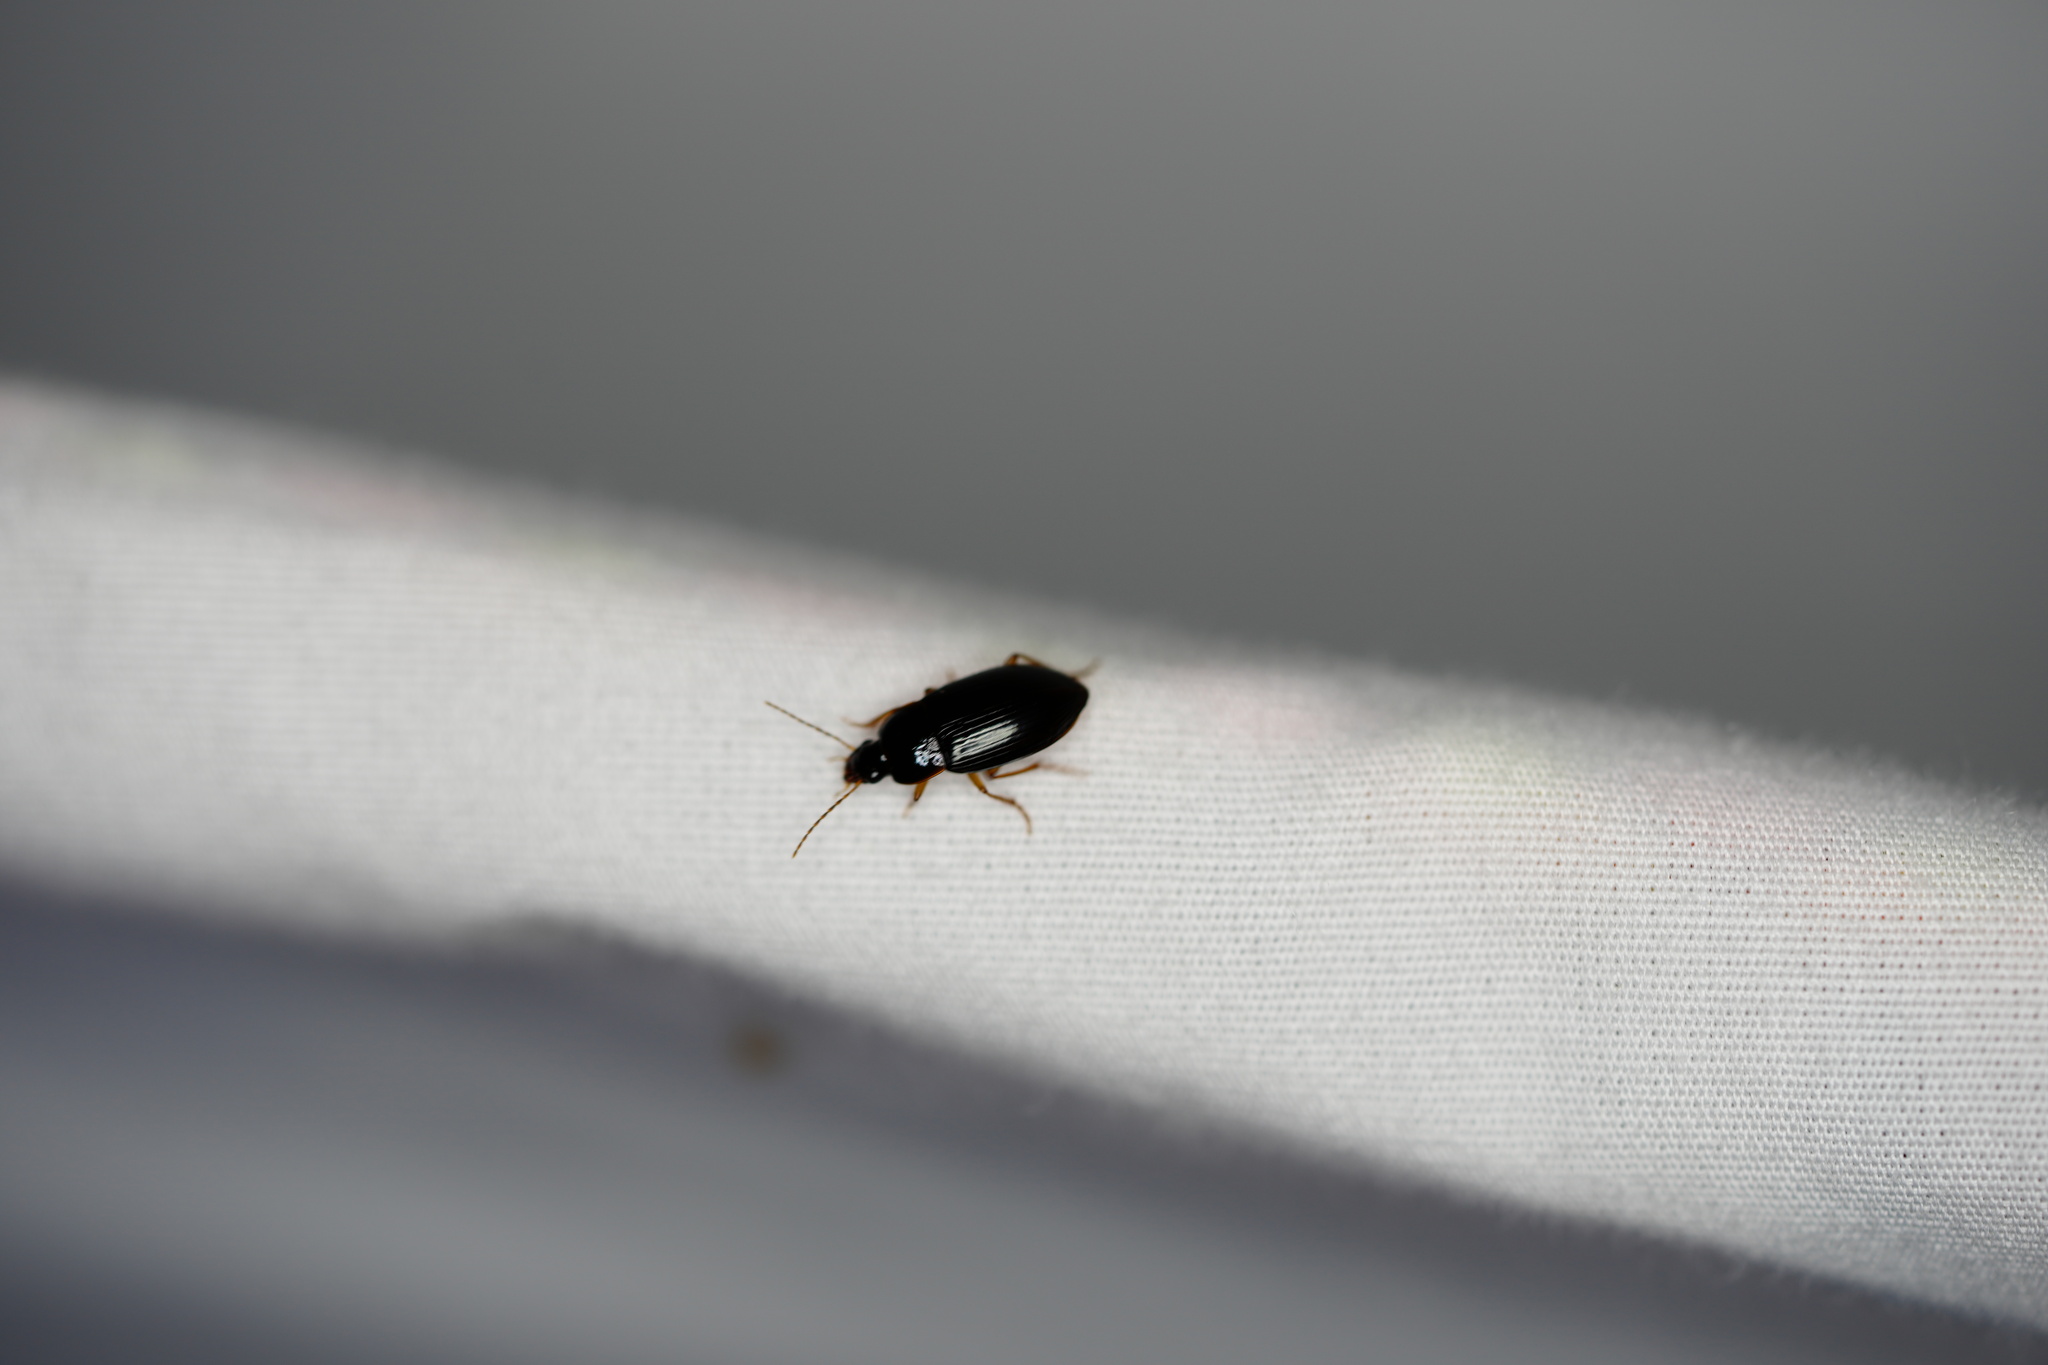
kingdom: Animalia
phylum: Arthropoda
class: Insecta
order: Coleoptera
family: Carabidae
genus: Notiobia
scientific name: Notiobia terminata
